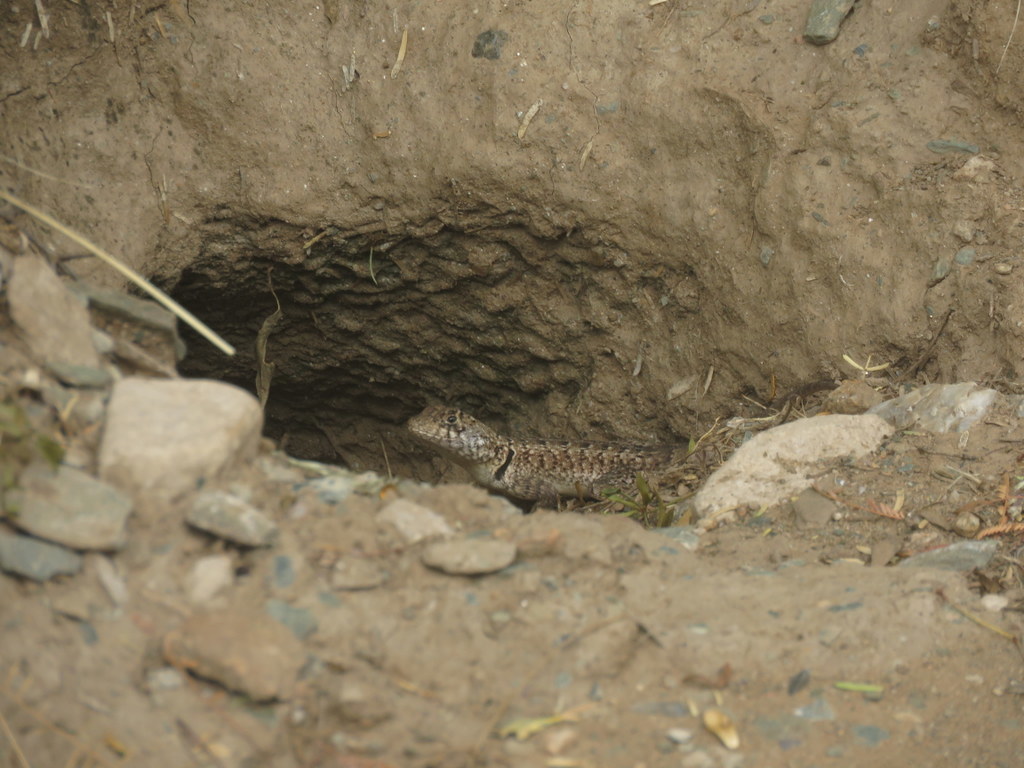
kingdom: Animalia
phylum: Chordata
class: Squamata
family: Tropiduridae
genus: Tropidurus
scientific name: Tropidurus etheridgei
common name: Etheridge's lava lizard
